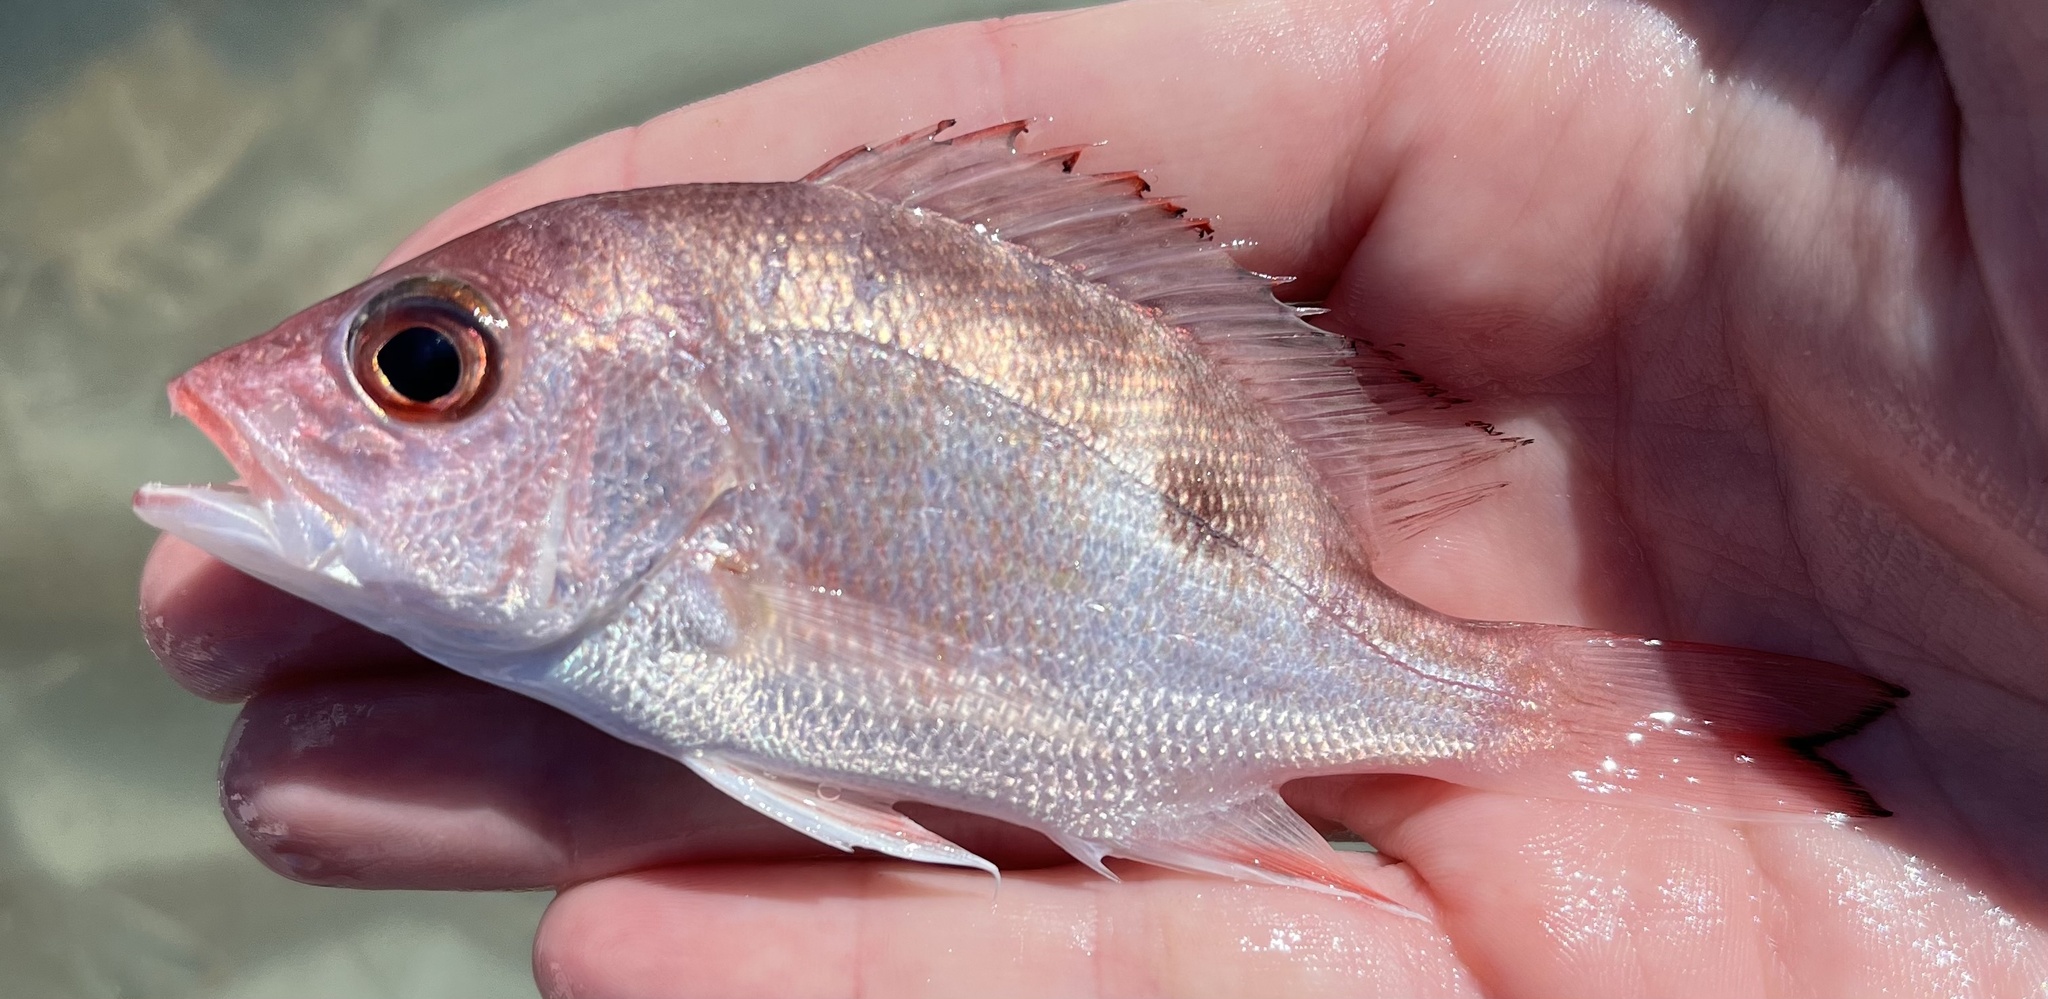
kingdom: Animalia
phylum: Chordata
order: Perciformes
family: Lutjanidae
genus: Lutjanus
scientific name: Lutjanus campechanus
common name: Red snapper
